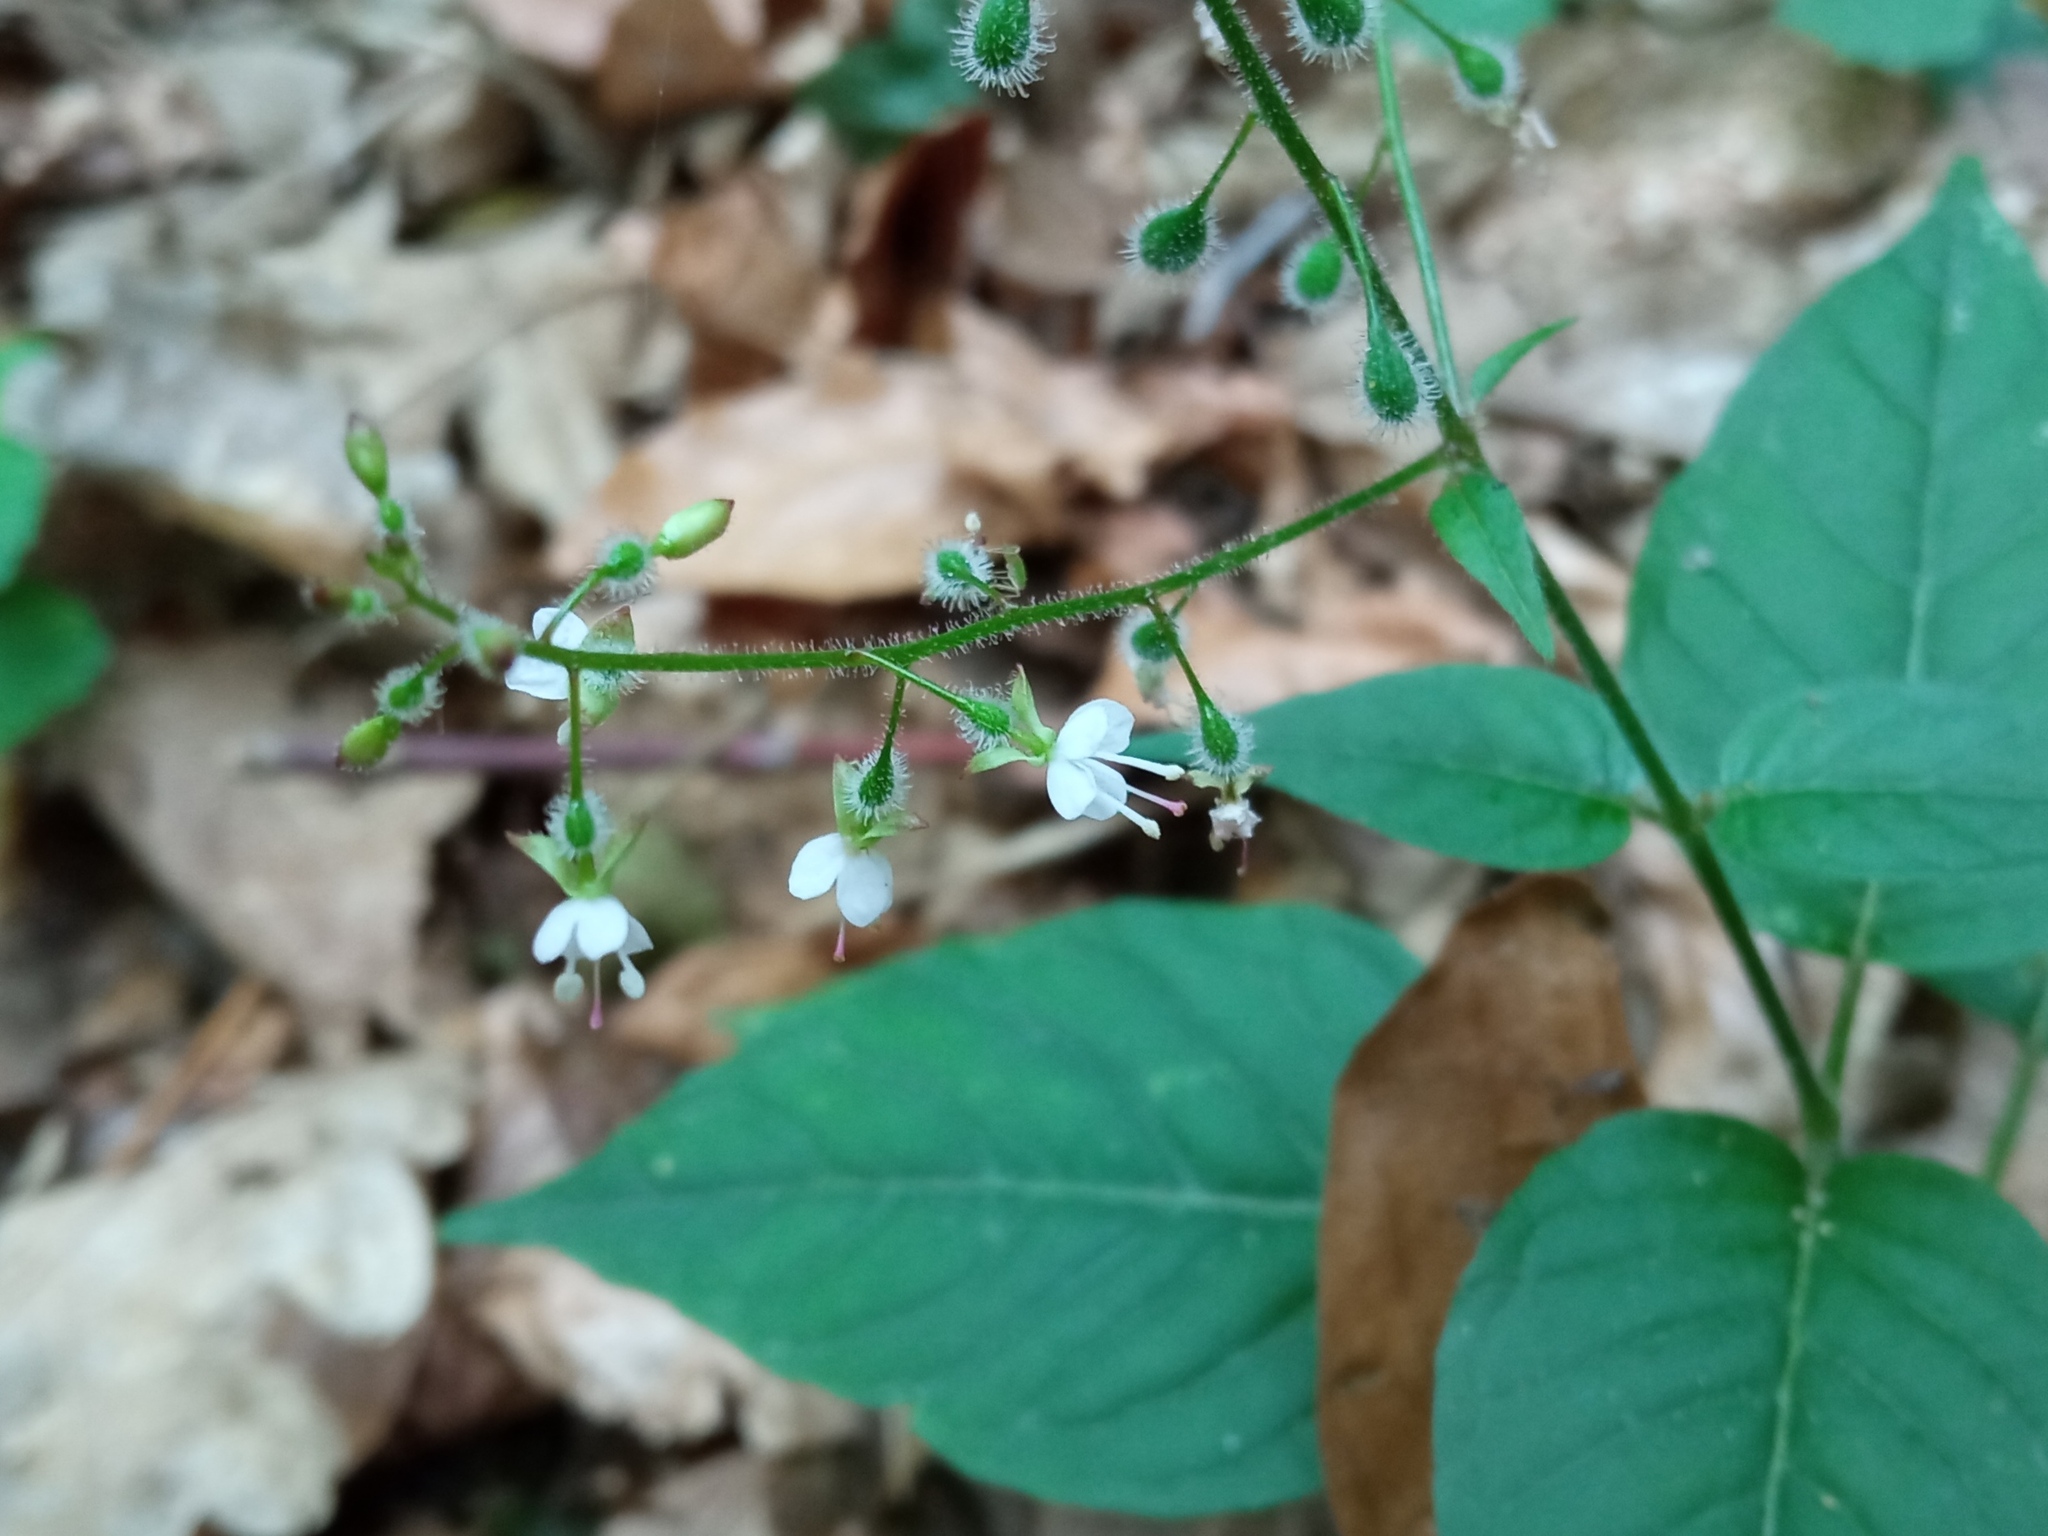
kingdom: Plantae
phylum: Tracheophyta
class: Magnoliopsida
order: Myrtales
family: Onagraceae
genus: Circaea
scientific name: Circaea lutetiana
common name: Enchanter's-nightshade
